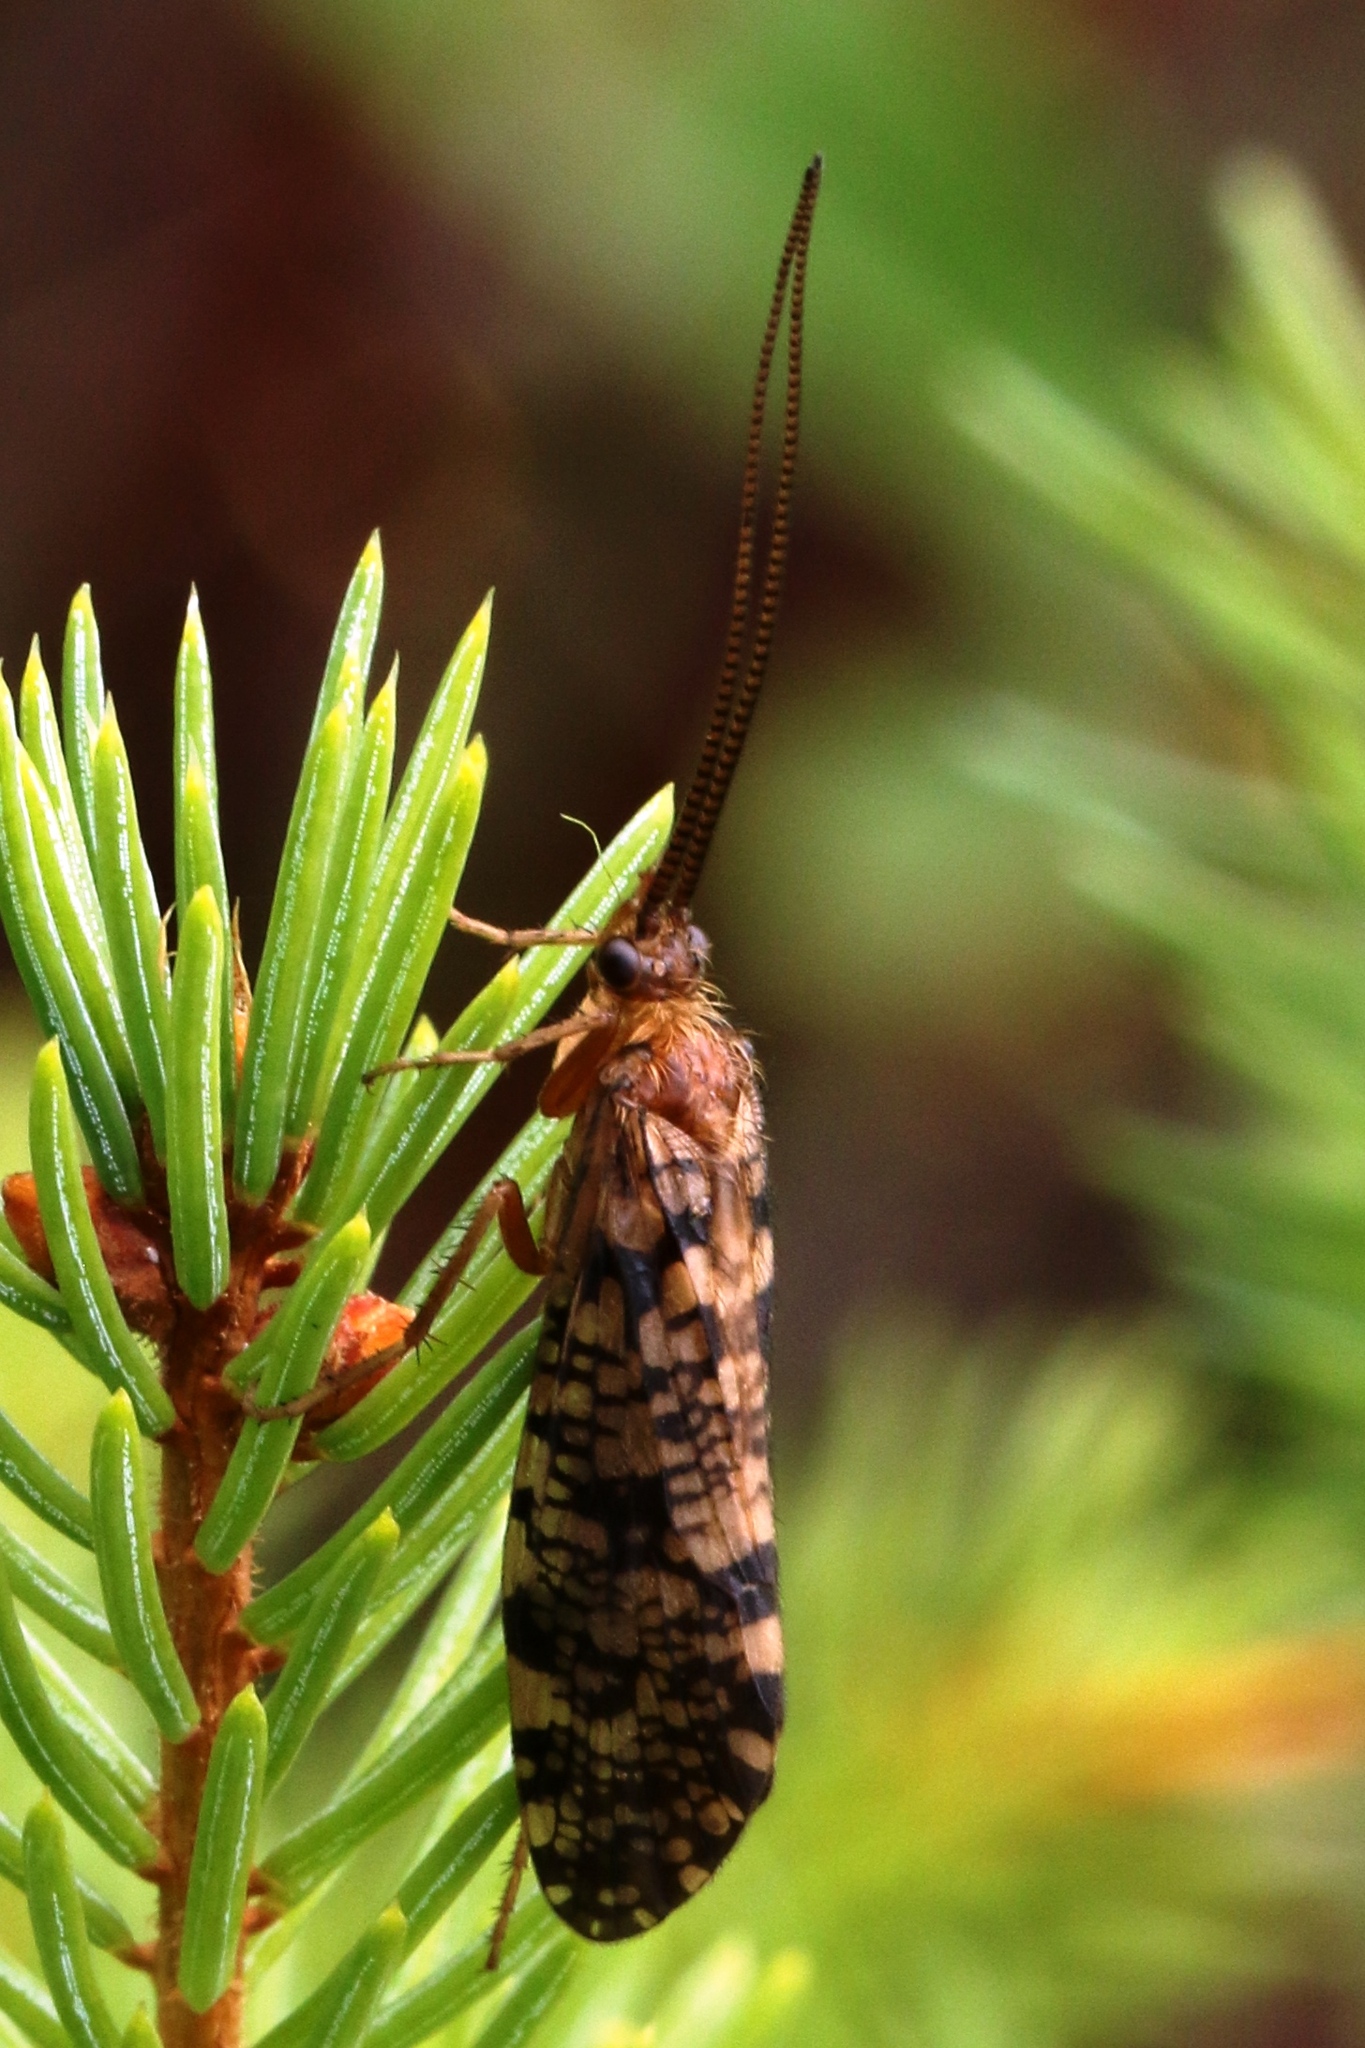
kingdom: Animalia
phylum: Arthropoda
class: Insecta
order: Trichoptera
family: Phryganeidae
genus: Banksiola
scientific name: Banksiola dossuaria
